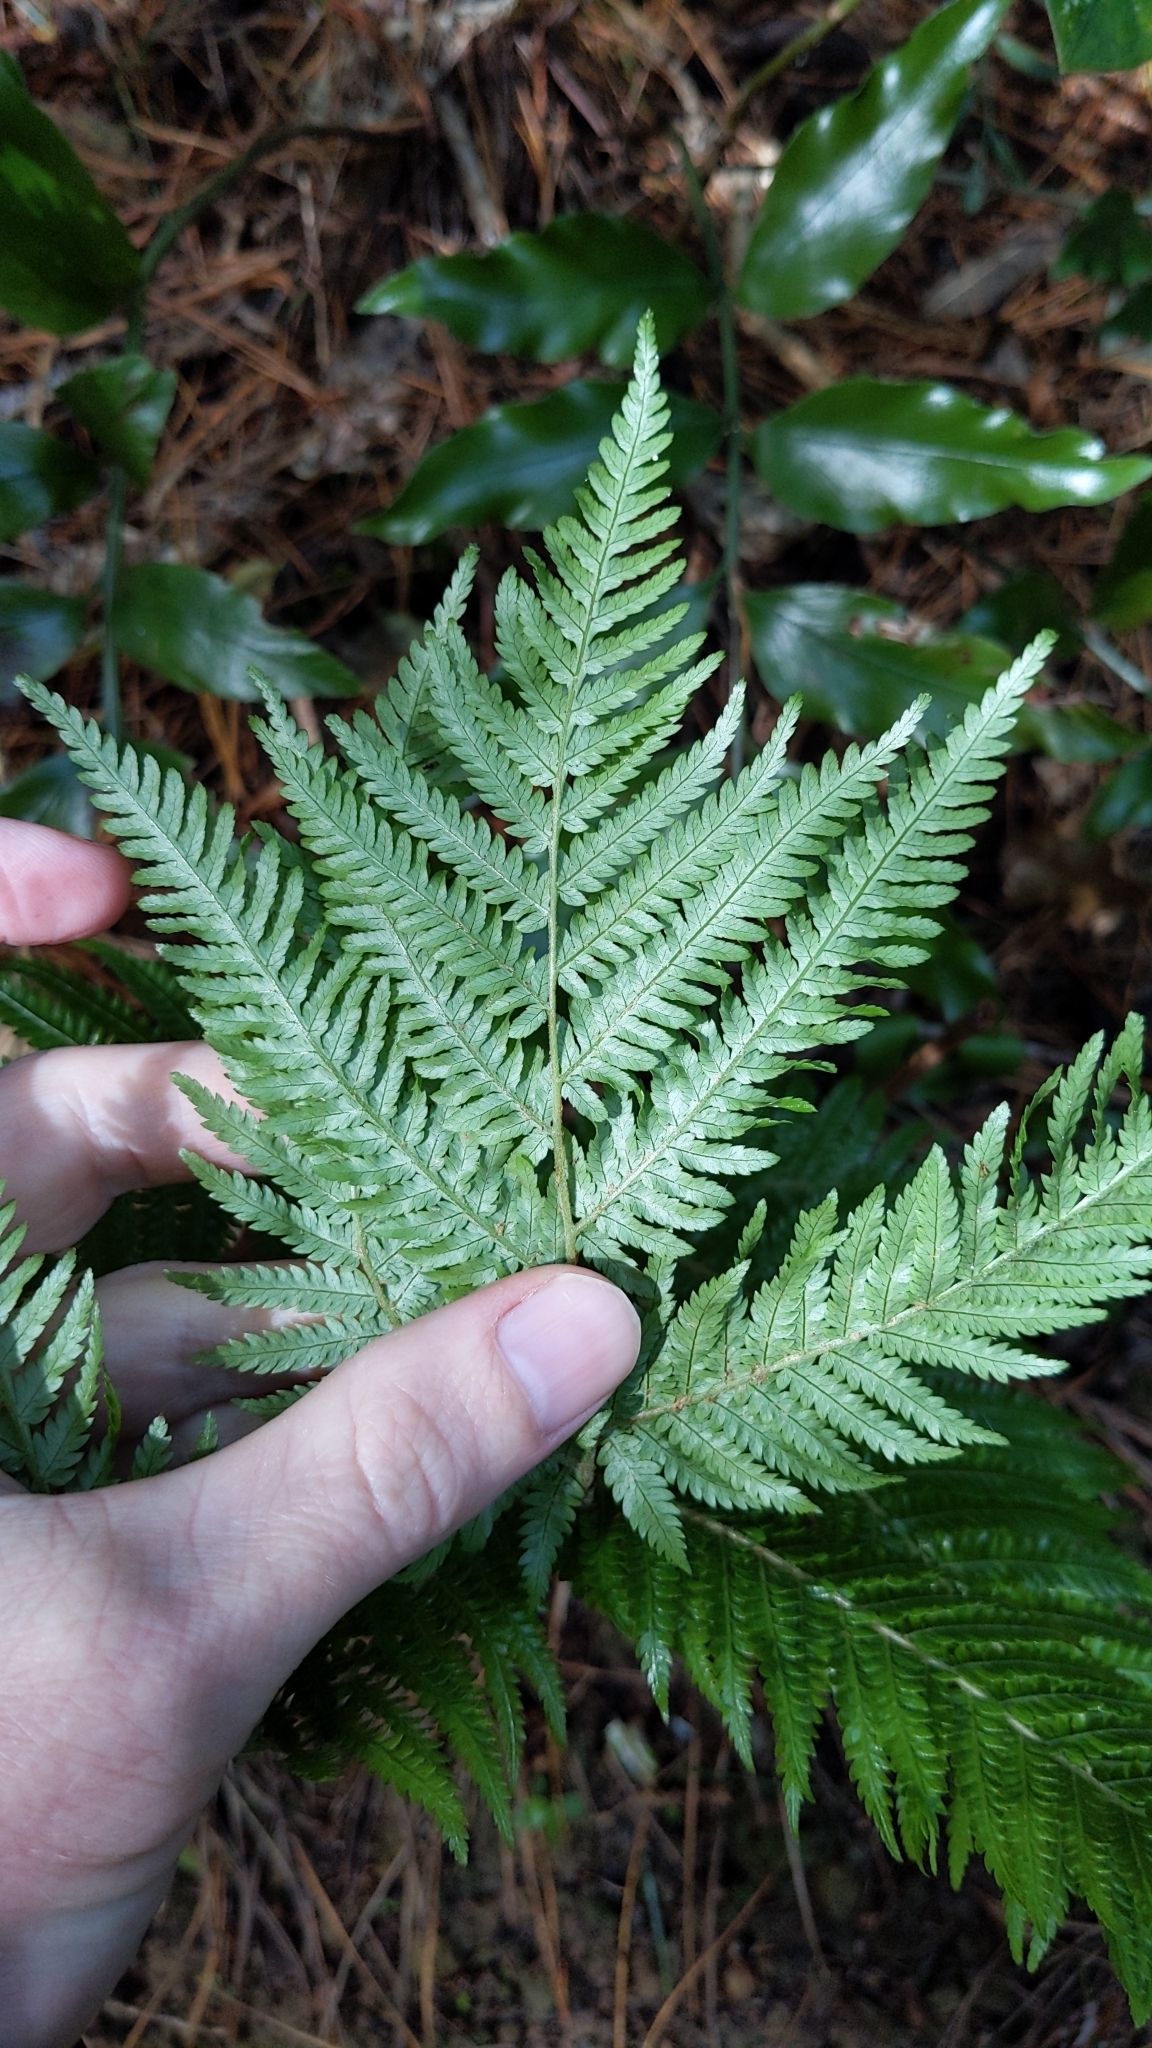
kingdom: Plantae
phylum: Tracheophyta
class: Polypodiopsida
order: Cyatheales
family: Cyatheaceae
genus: Alsophila
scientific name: Alsophila dealbata
